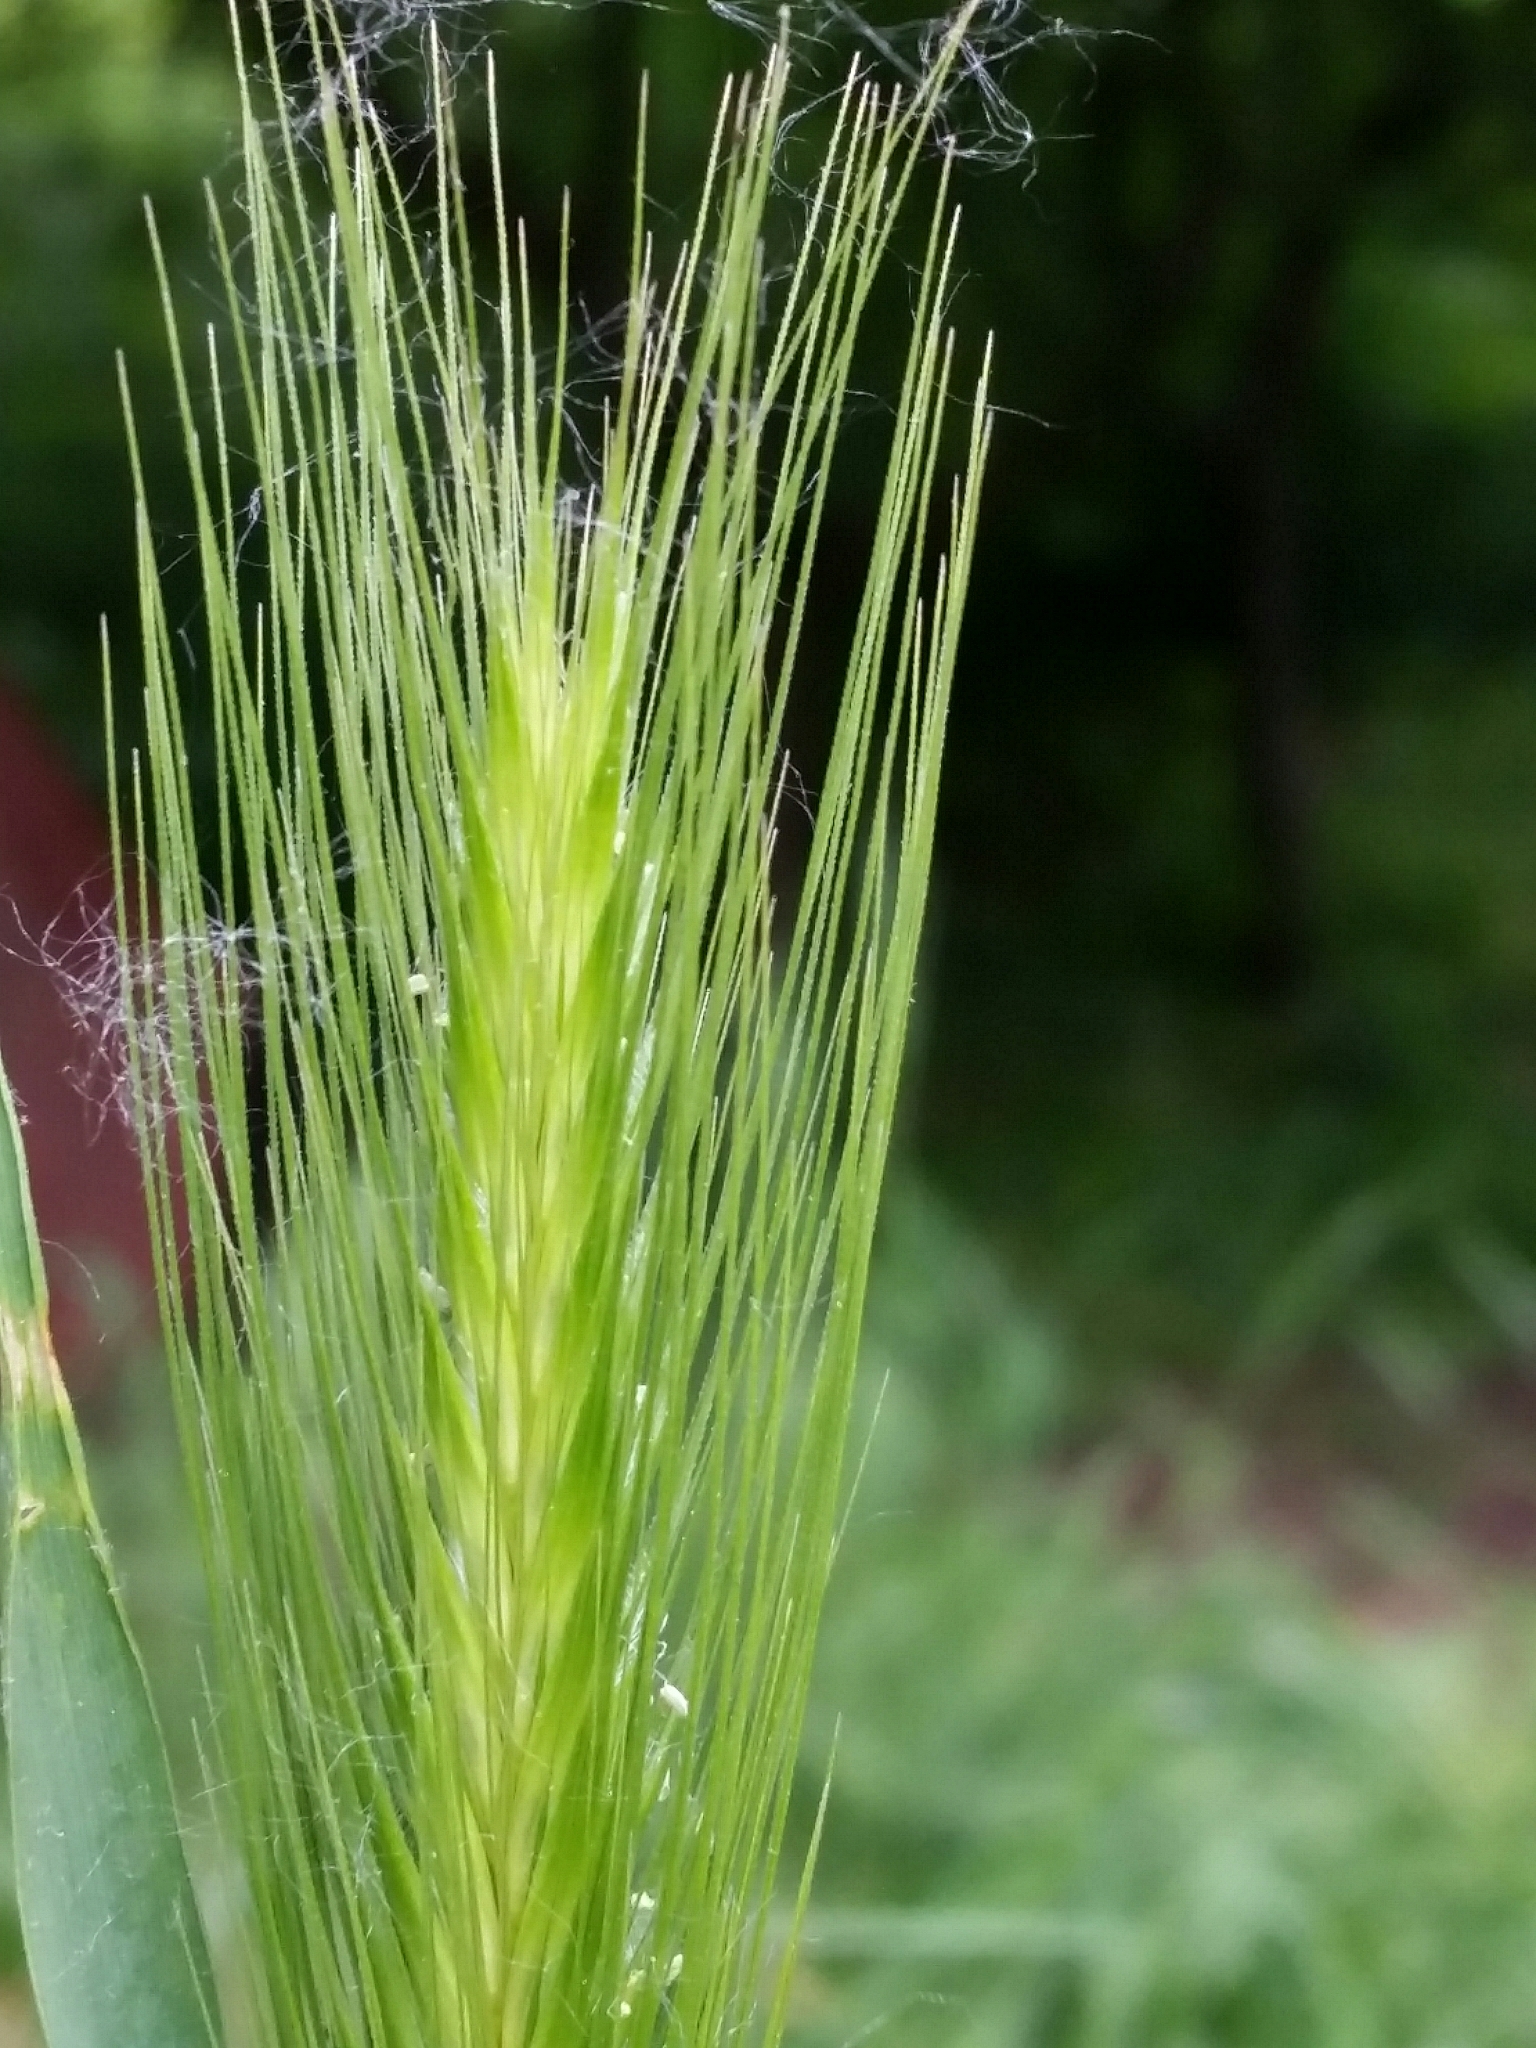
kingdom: Plantae
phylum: Tracheophyta
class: Liliopsida
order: Poales
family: Poaceae
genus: Hordeum
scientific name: Hordeum murinum
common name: Wall barley
